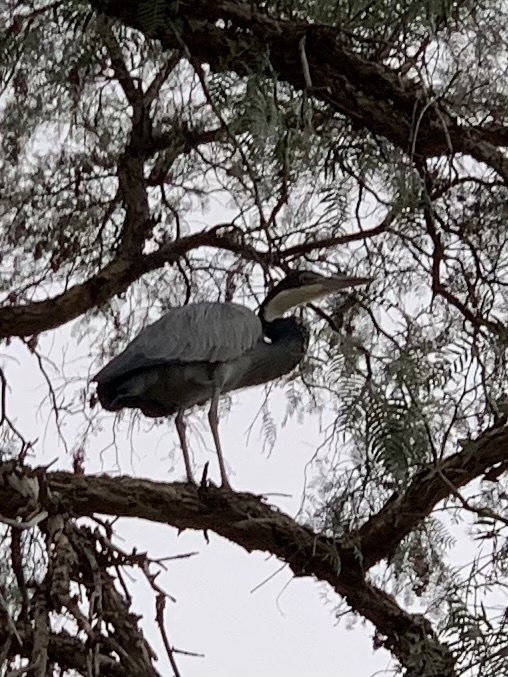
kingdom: Animalia
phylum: Chordata
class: Aves
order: Pelecaniformes
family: Ardeidae
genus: Ardea
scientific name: Ardea melanocephala
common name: Black-headed heron
